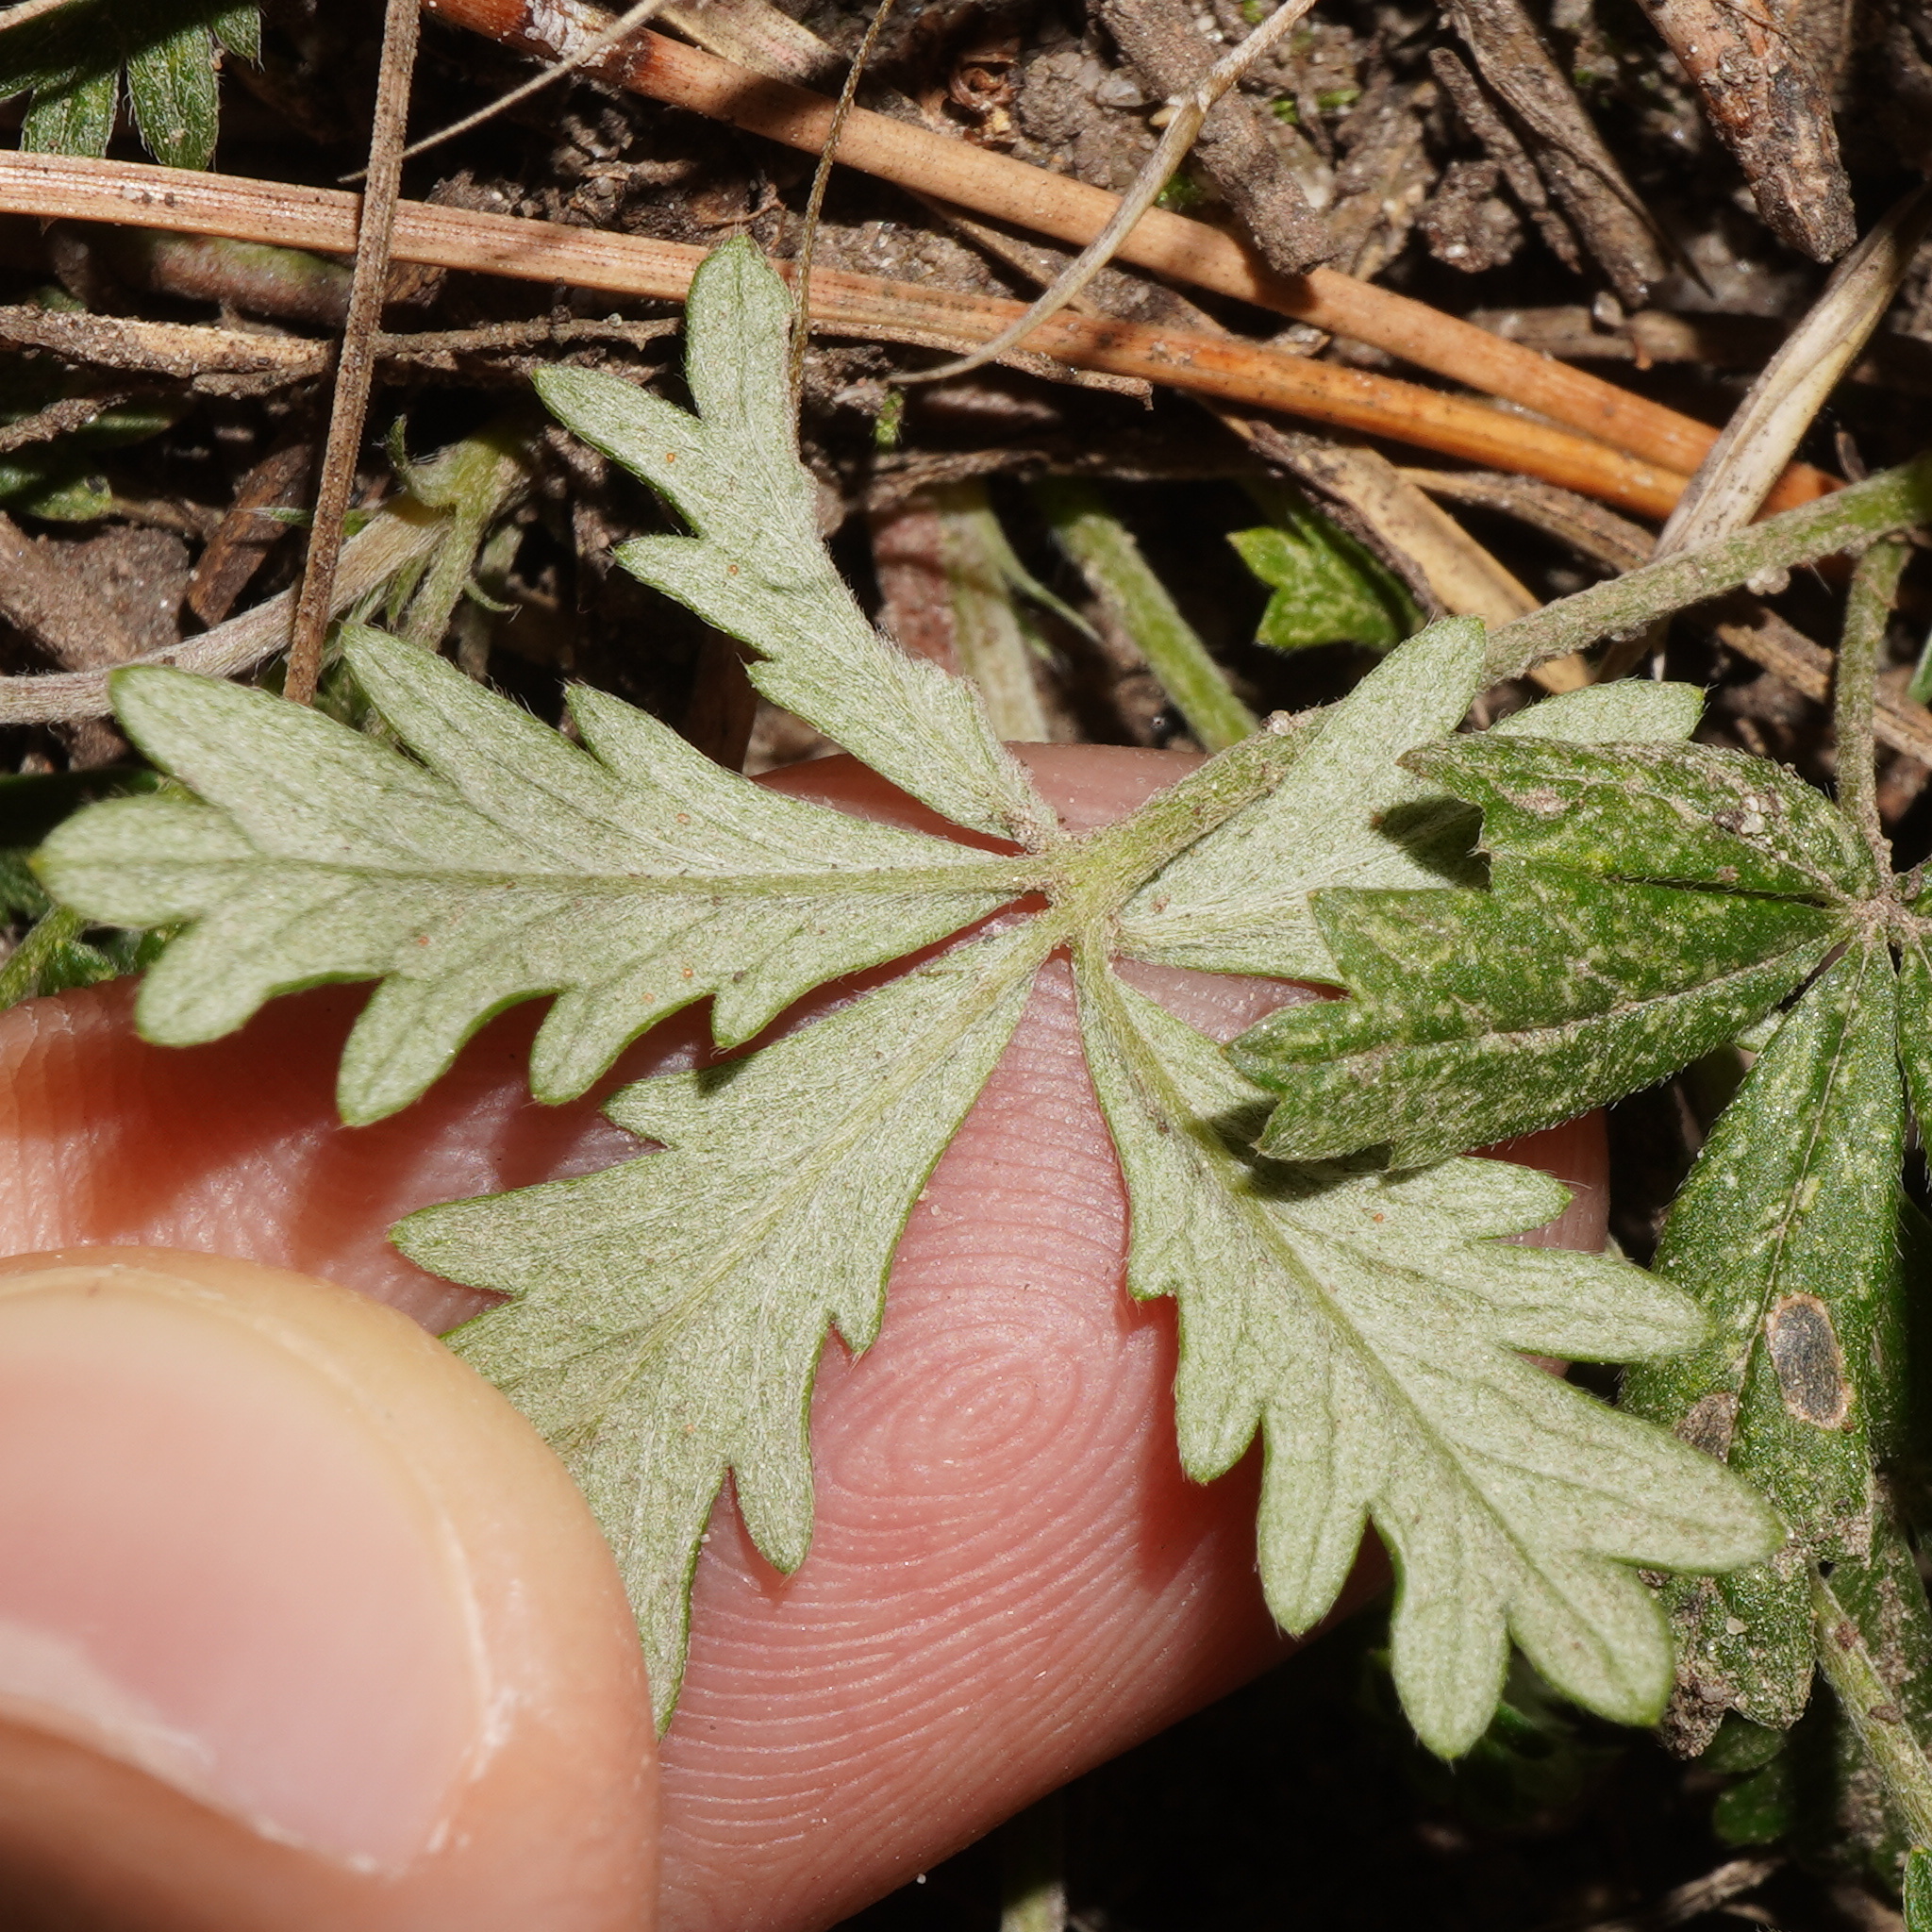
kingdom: Plantae
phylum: Tracheophyta
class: Magnoliopsida
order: Rosales
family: Rosaceae
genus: Potentilla
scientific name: Potentilla argentea
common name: Hoary cinquefoil
